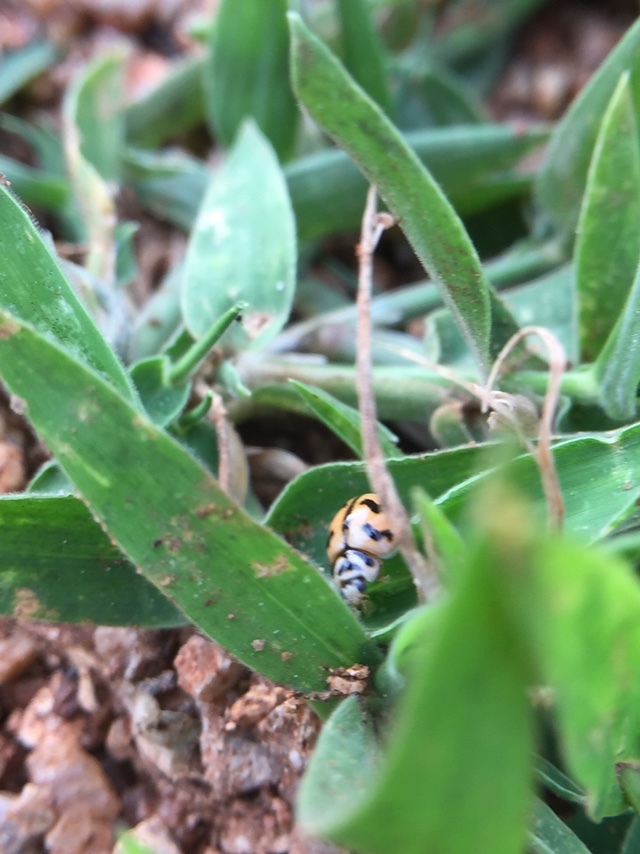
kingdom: Animalia
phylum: Arthropoda
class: Insecta
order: Coleoptera
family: Coccinellidae
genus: Cheilomenes
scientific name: Cheilomenes sexmaculata
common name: Ladybird beetle
